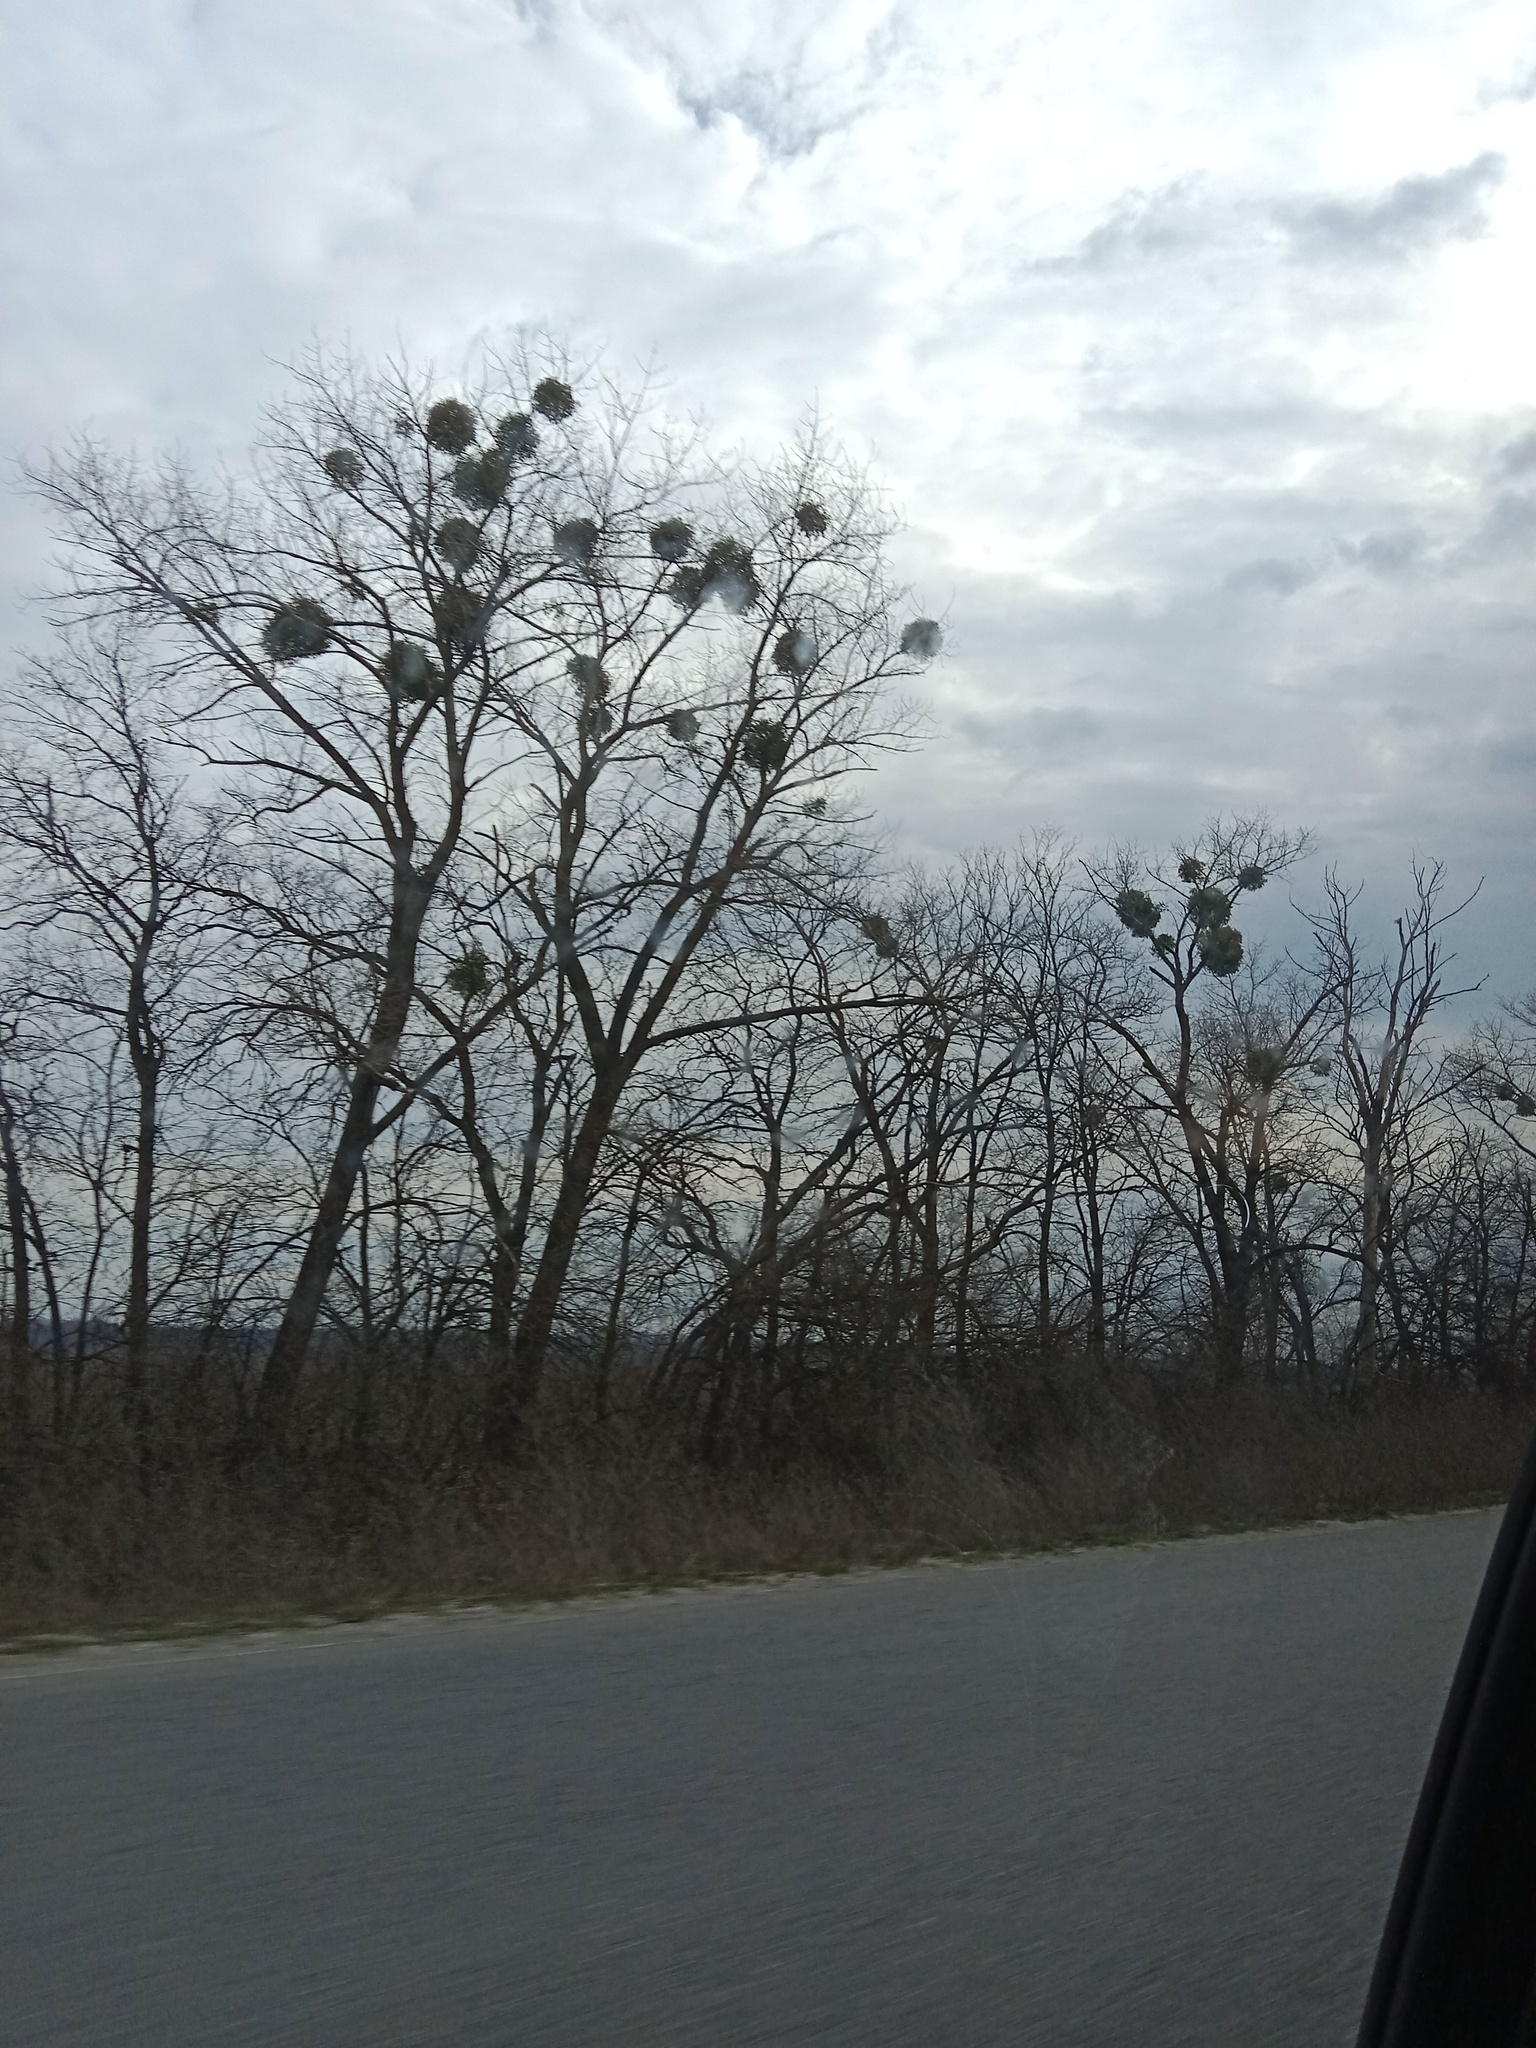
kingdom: Plantae
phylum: Tracheophyta
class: Magnoliopsida
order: Santalales
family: Viscaceae
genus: Viscum
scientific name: Viscum album
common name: Mistletoe
